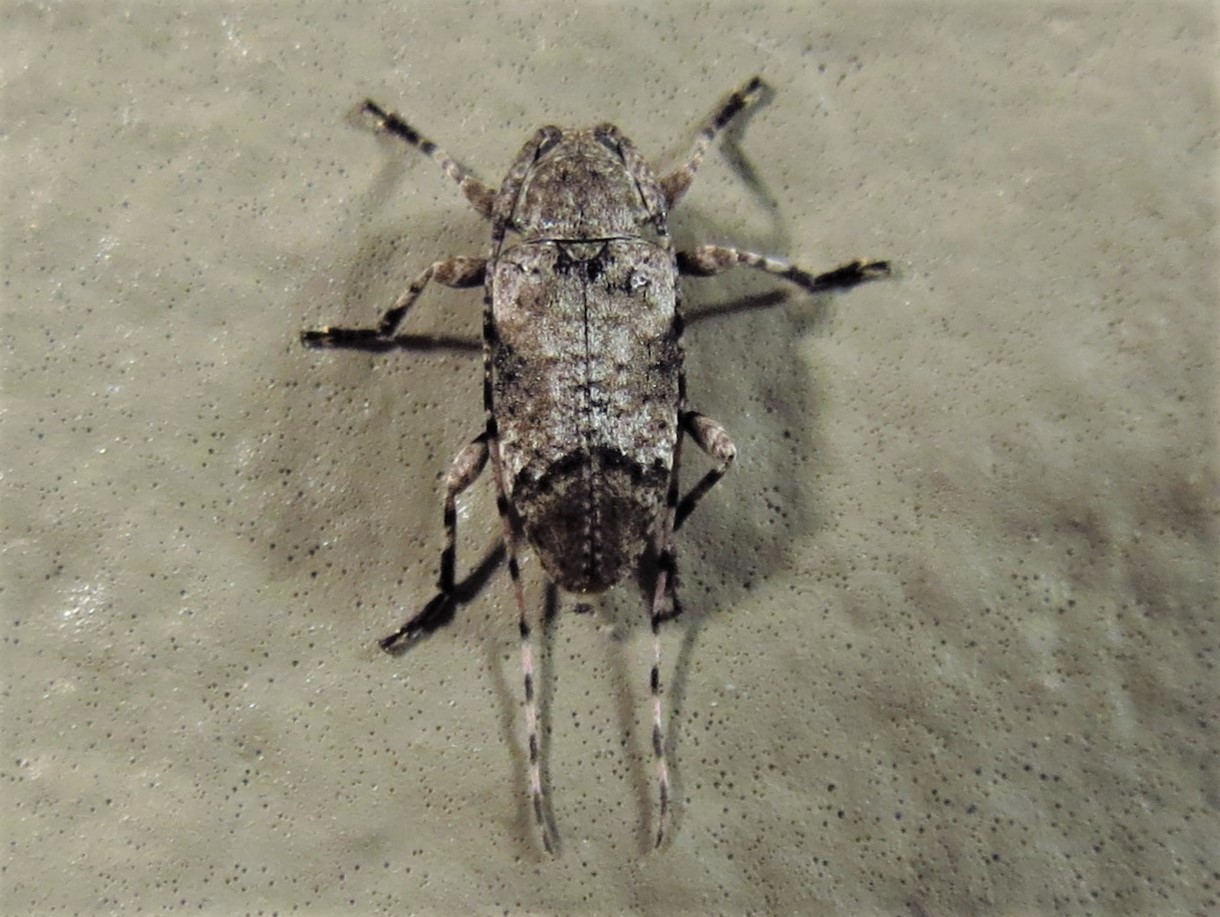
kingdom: Animalia
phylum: Arthropoda
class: Insecta
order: Coleoptera
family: Cerambycidae
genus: Sternidius
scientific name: Sternidius mimeticus
